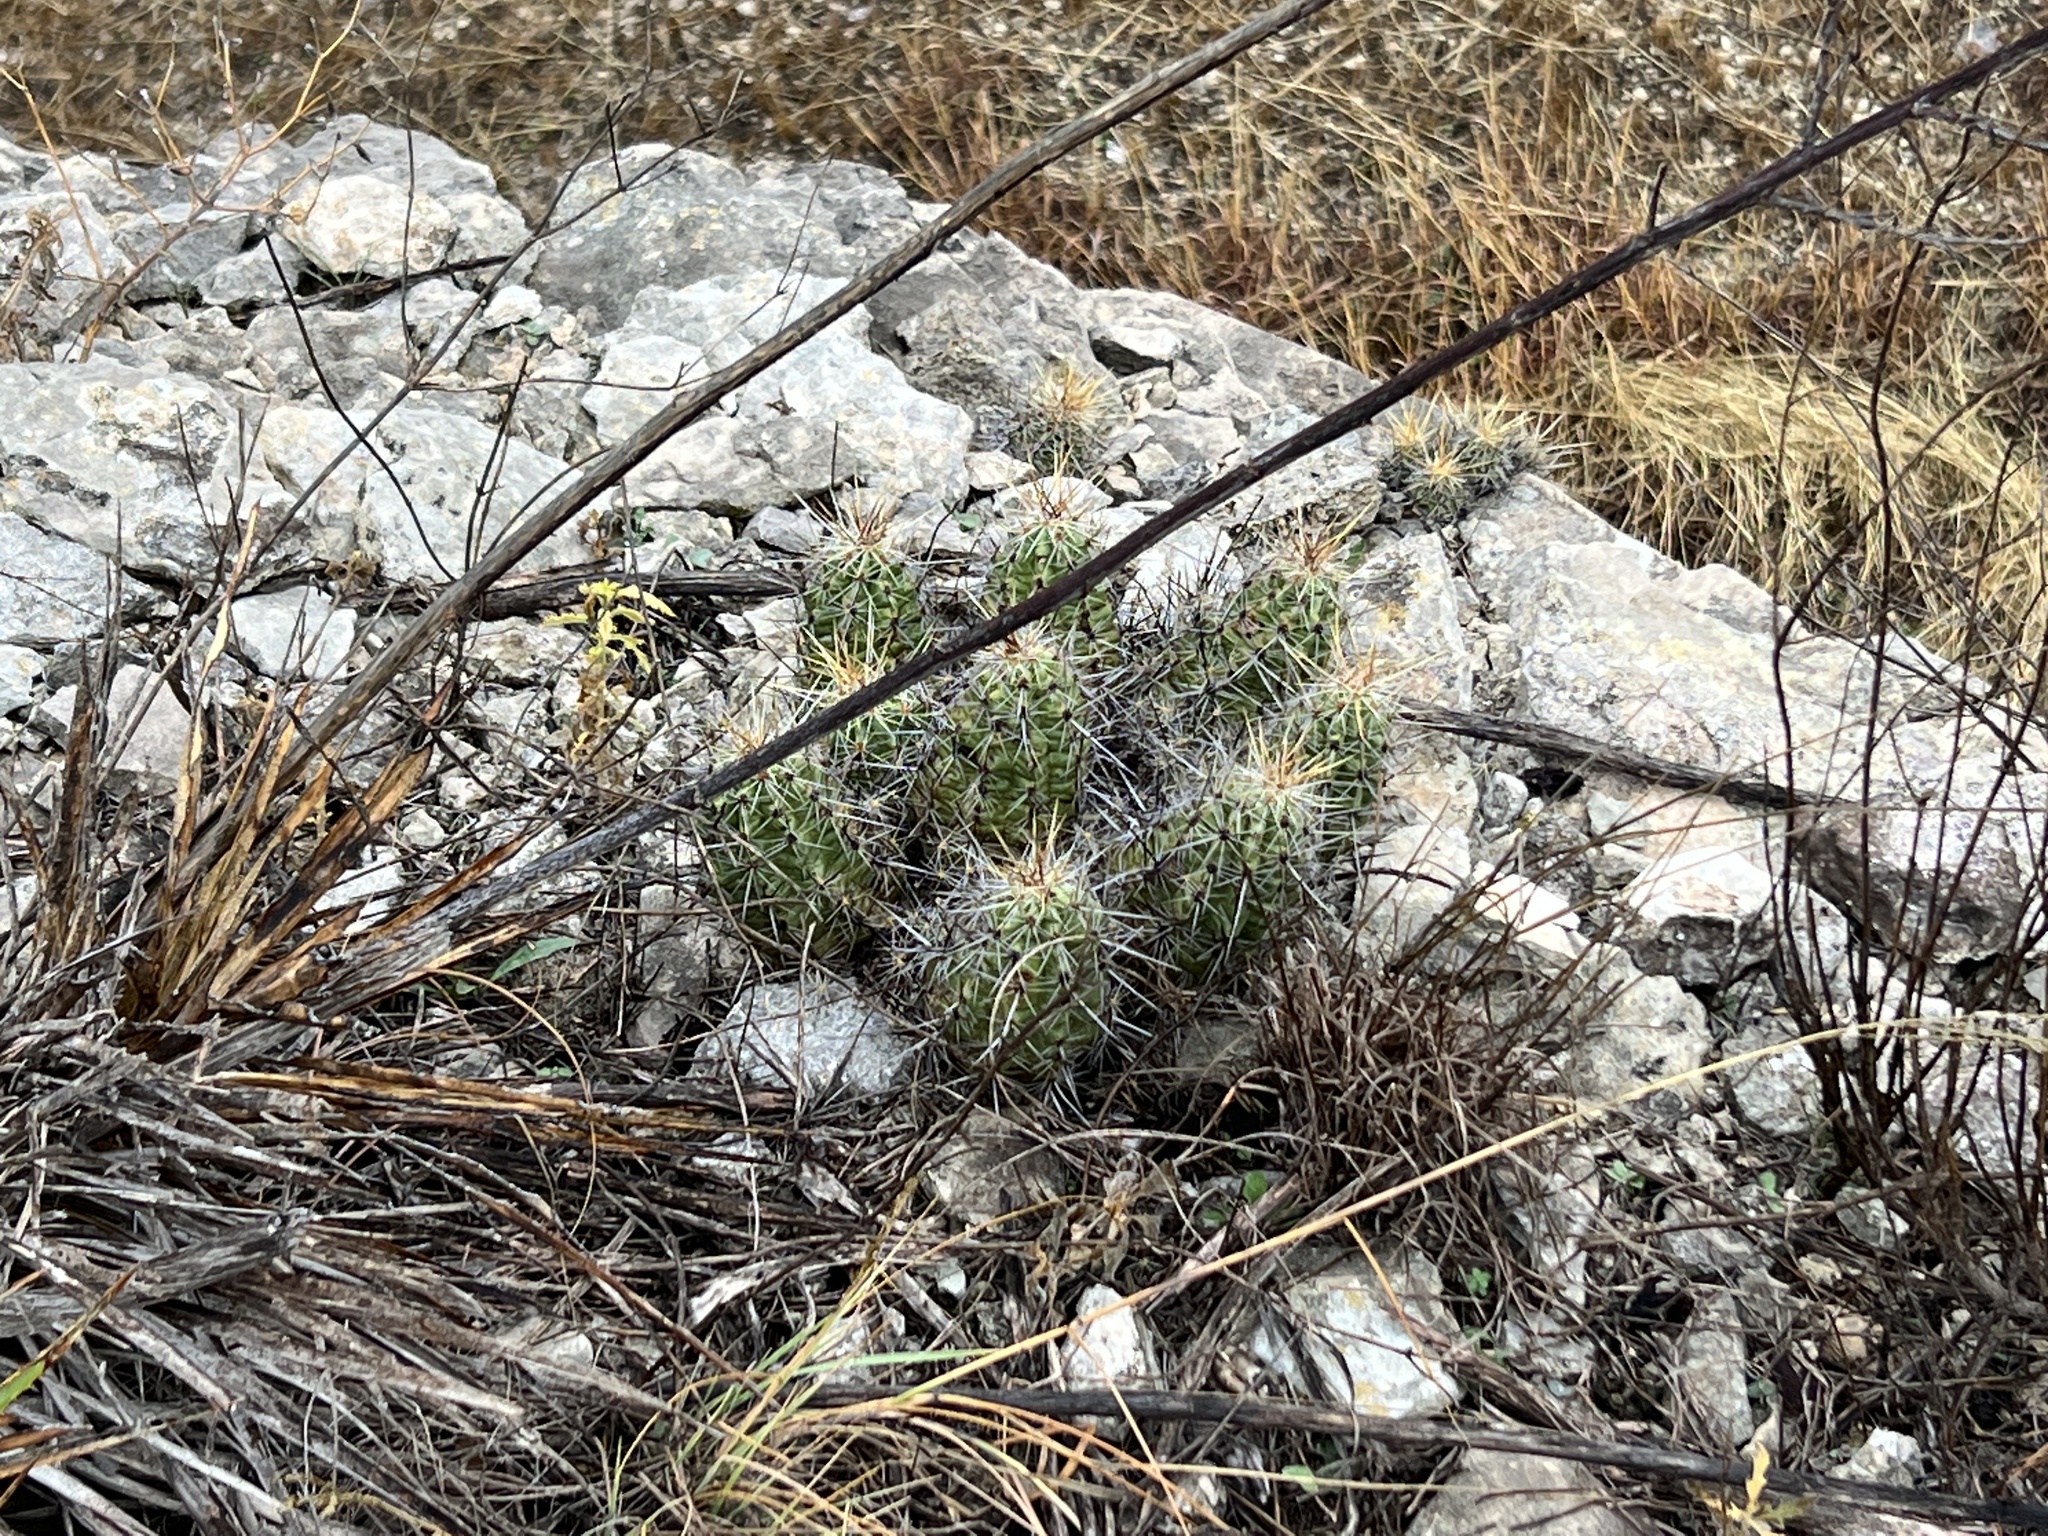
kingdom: Plantae
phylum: Tracheophyta
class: Magnoliopsida
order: Caryophyllales
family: Cactaceae
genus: Echinocereus
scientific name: Echinocereus enneacanthus
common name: Pitaya
